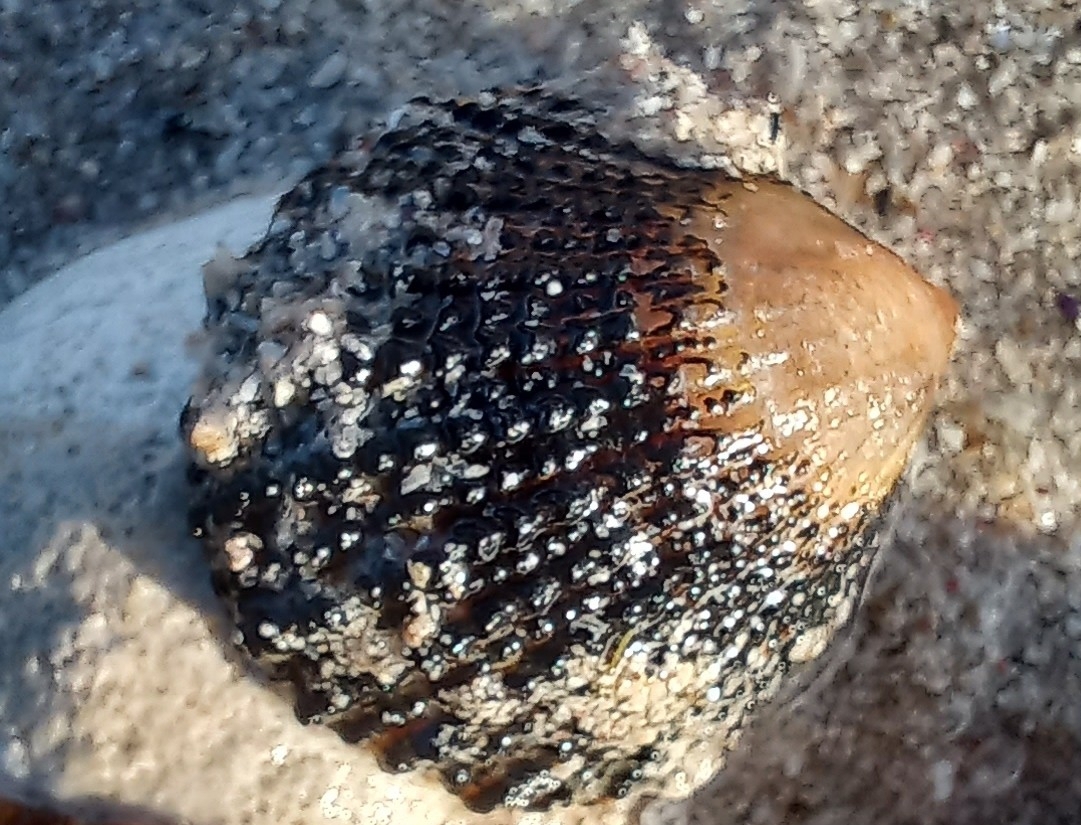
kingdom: Animalia
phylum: Mollusca
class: Gastropoda
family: Patellidae
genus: Helcion
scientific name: Helcion pectunculus
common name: Prickly limpet
